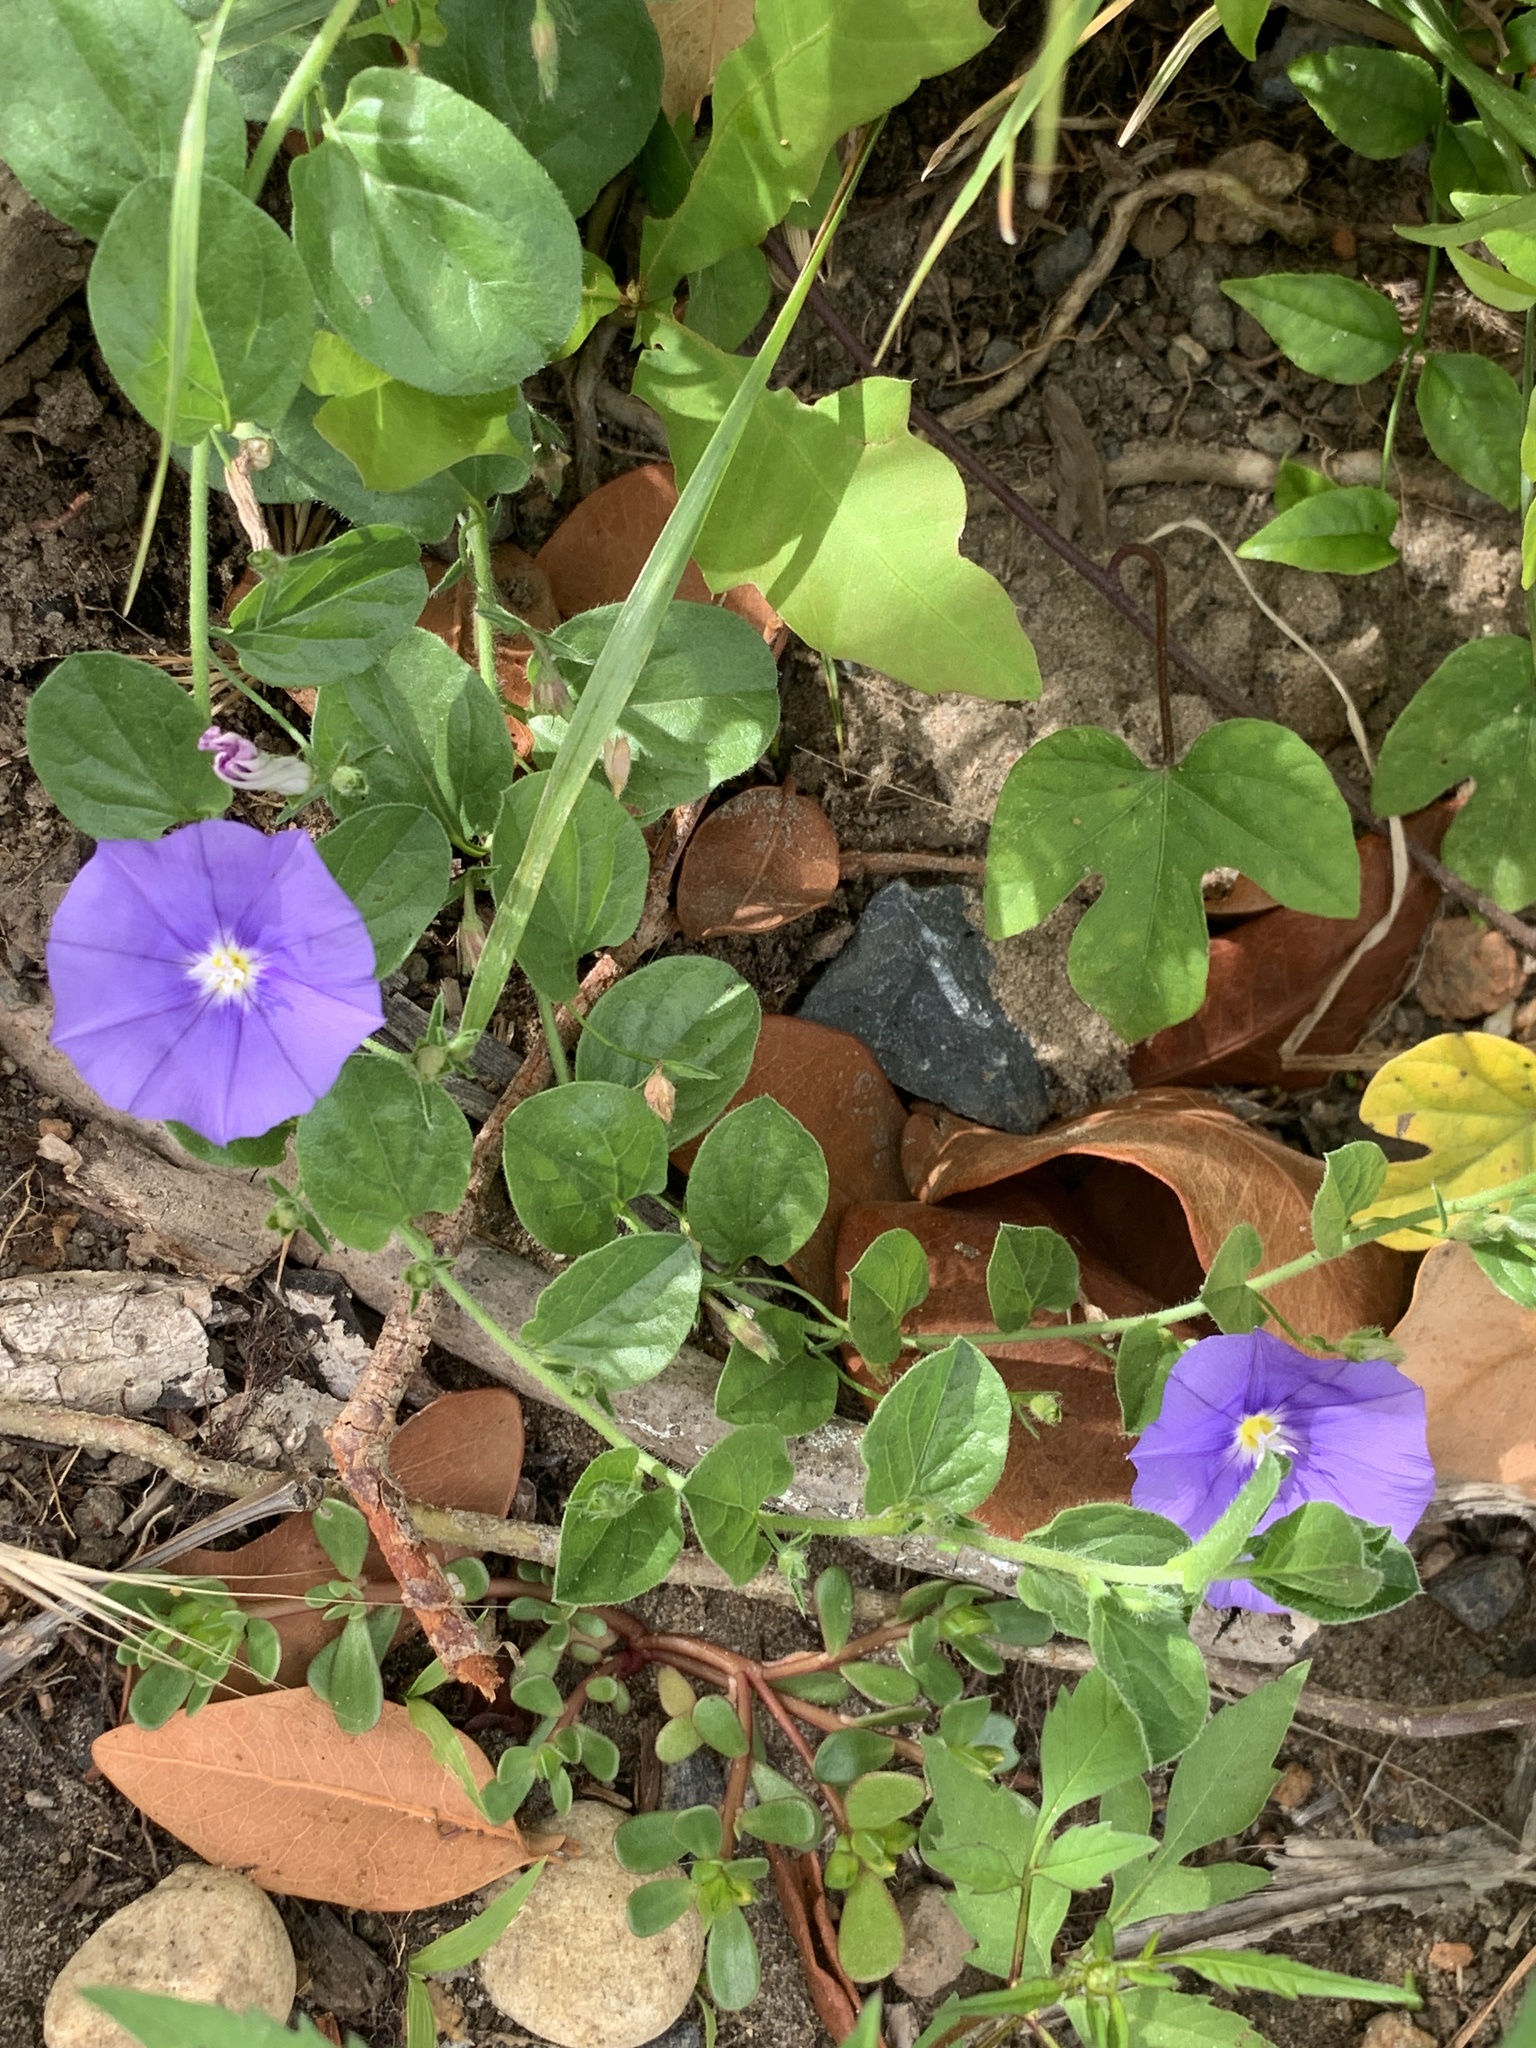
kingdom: Plantae
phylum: Tracheophyta
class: Magnoliopsida
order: Solanales
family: Convolvulaceae
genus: Convolvulus
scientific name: Convolvulus sabatius
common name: Ground blue-convolvulus
